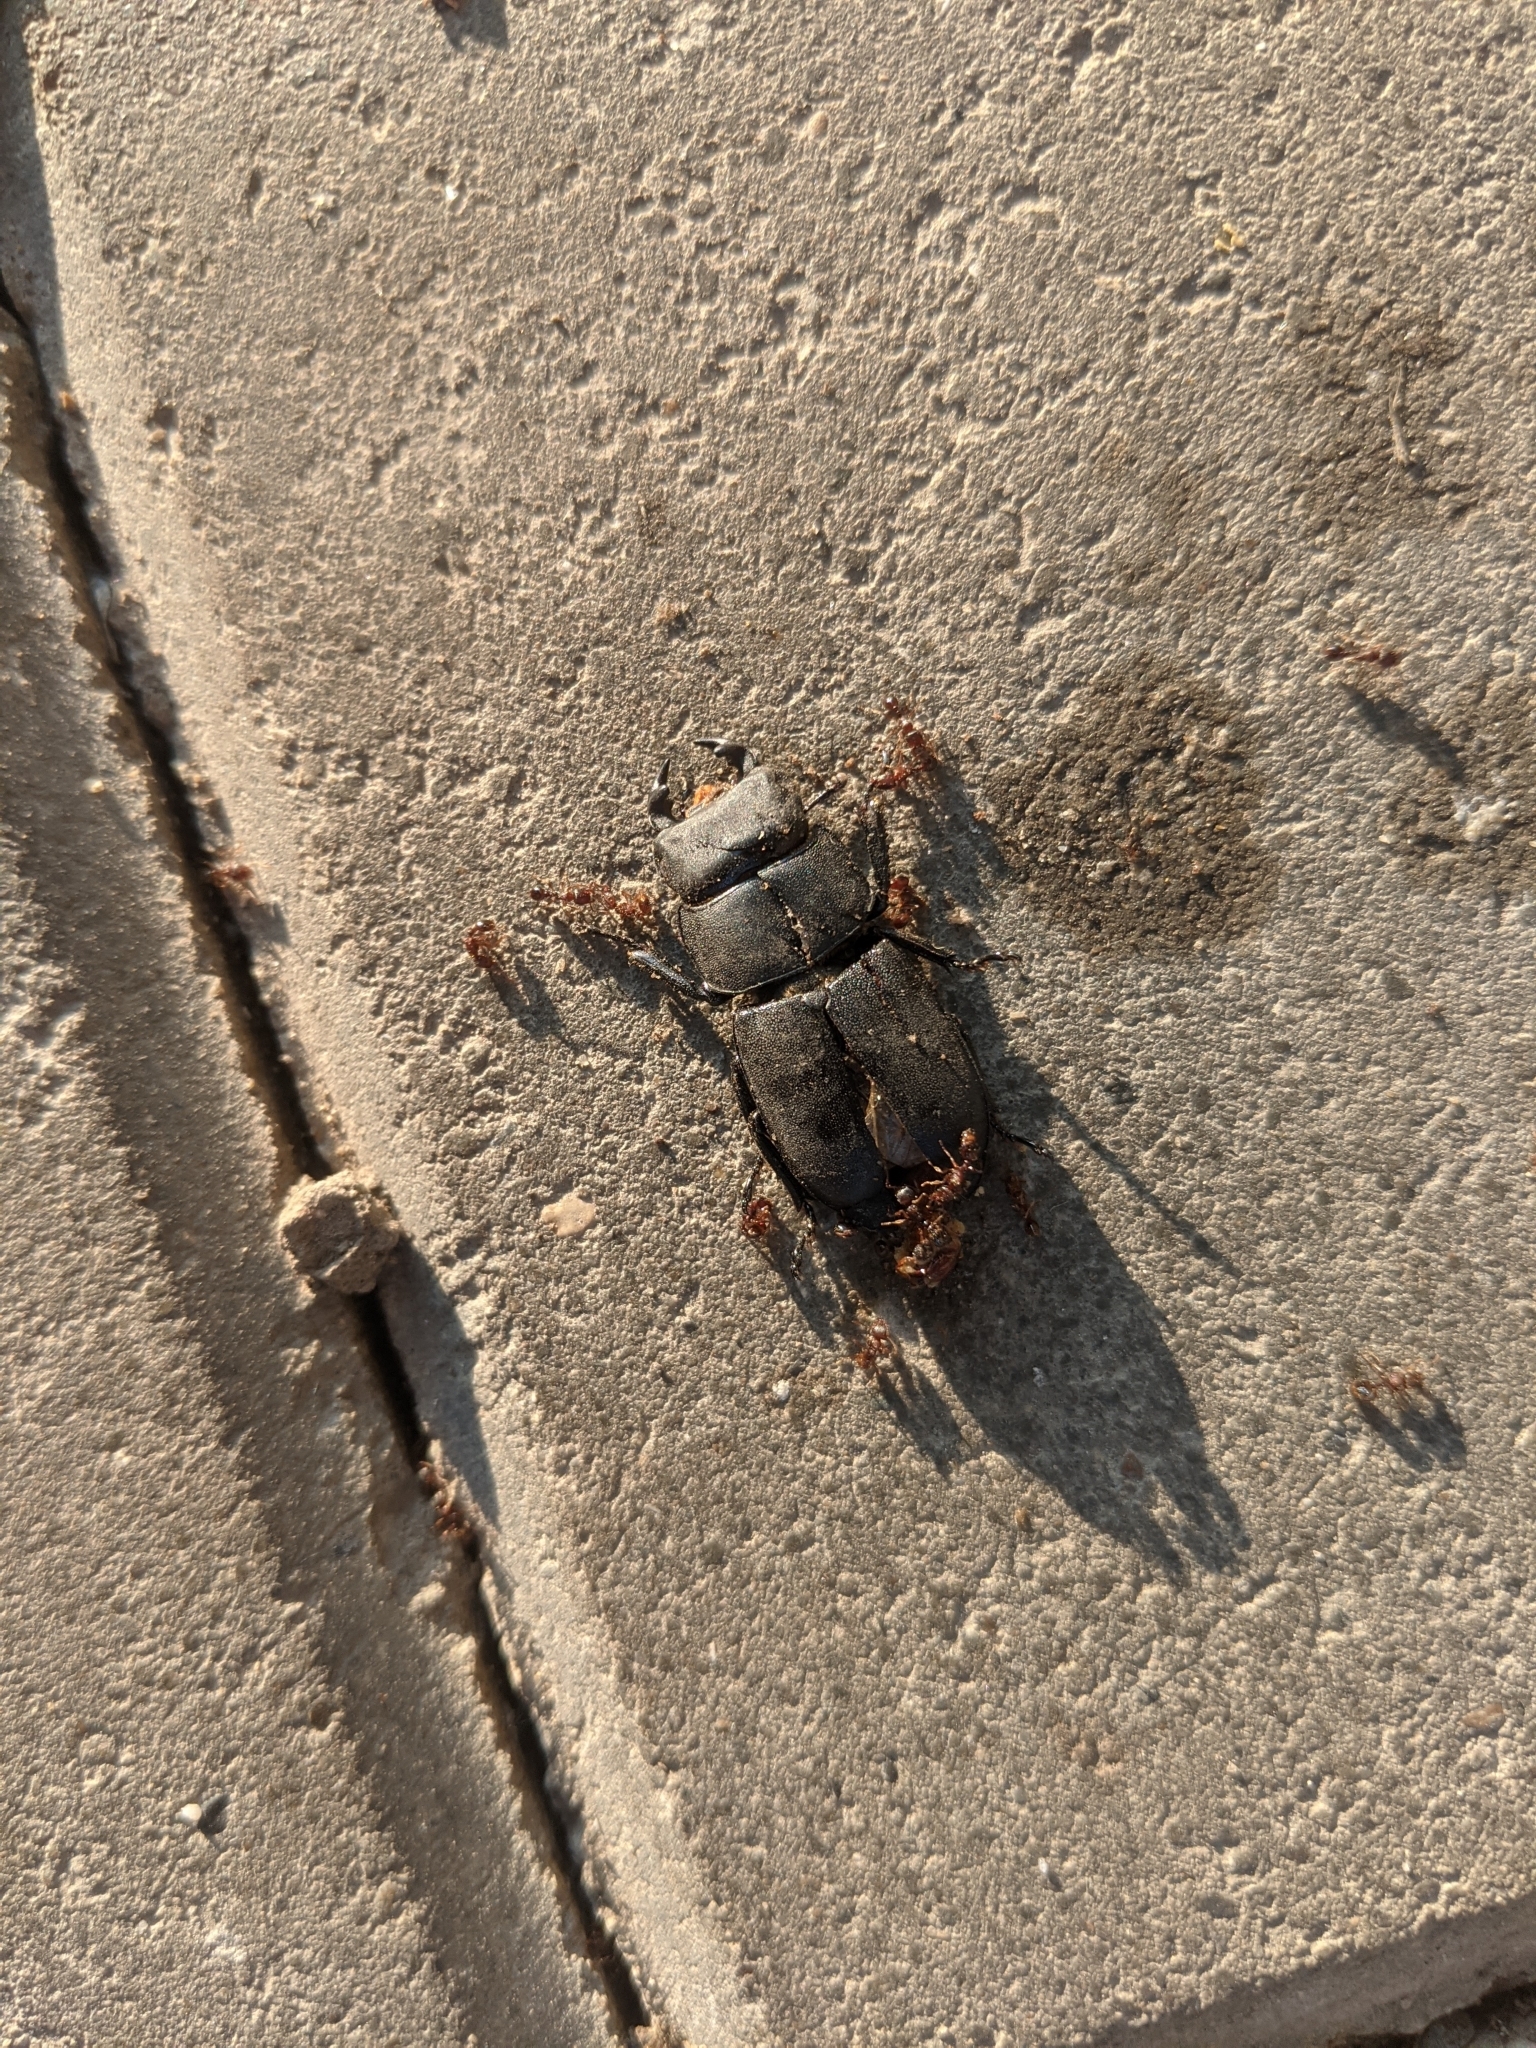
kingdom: Animalia
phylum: Arthropoda
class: Insecta
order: Coleoptera
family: Lucanidae
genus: Dorcus
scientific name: Dorcus parallelipipedus
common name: Lesser stag beetle
